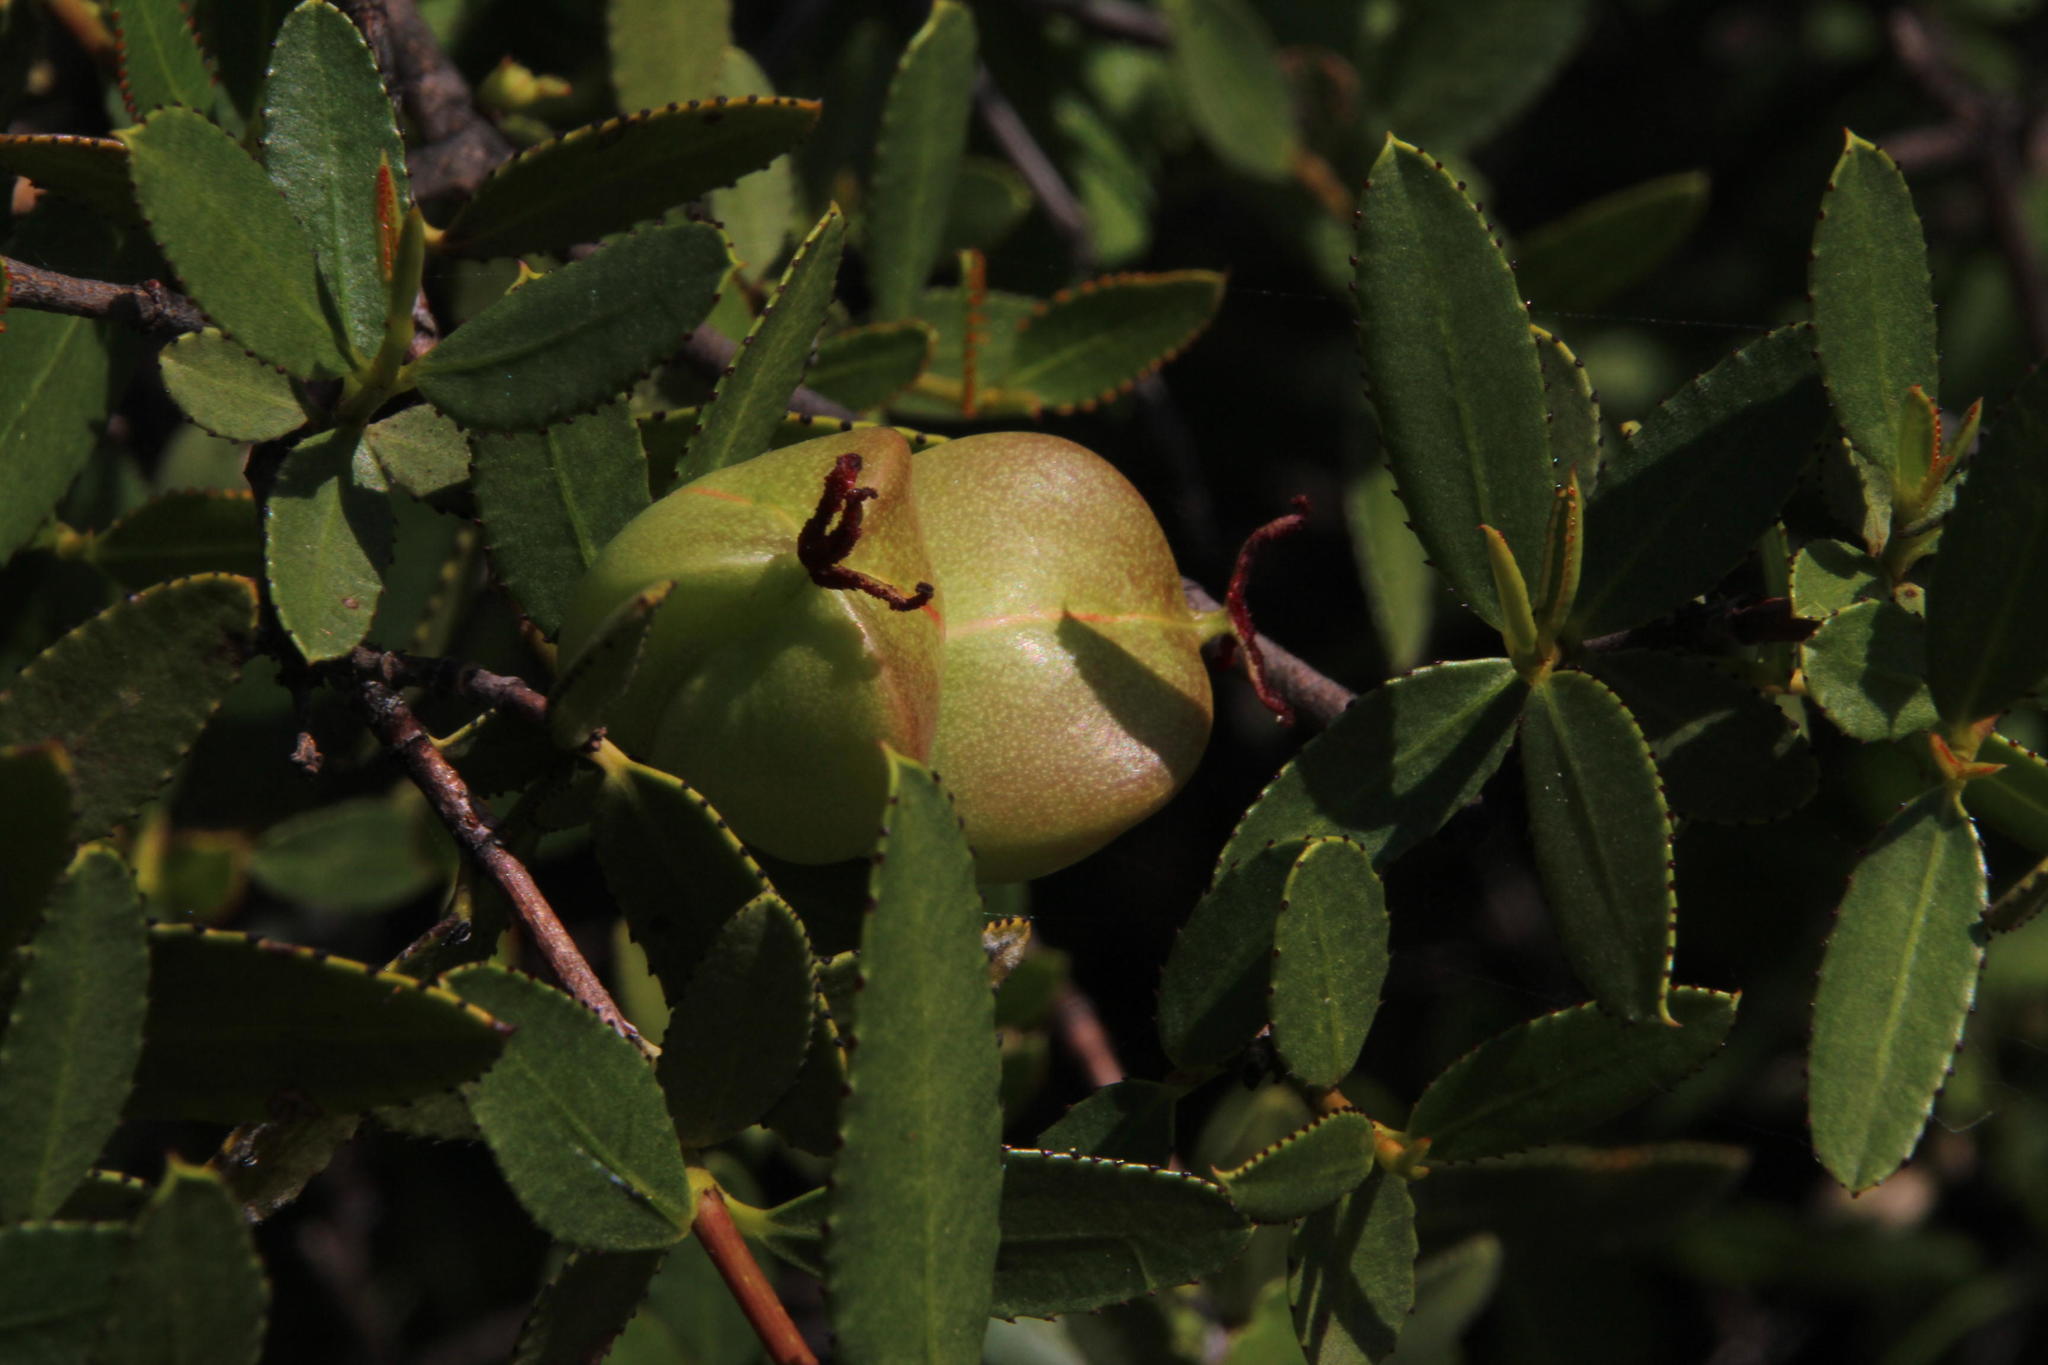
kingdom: Plantae
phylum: Tracheophyta
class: Magnoliopsida
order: Malpighiales
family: Euphorbiaceae
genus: Colliguaja
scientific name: Colliguaja odorifera
